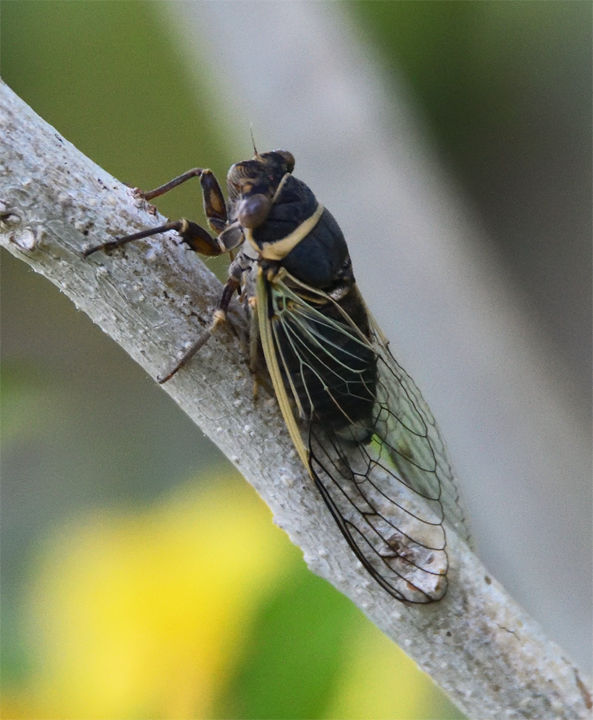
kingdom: Animalia
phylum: Arthropoda
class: Insecta
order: Hemiptera
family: Cicadidae
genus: Diceroprocta
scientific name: Diceroprocta apache
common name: Desert cicada
